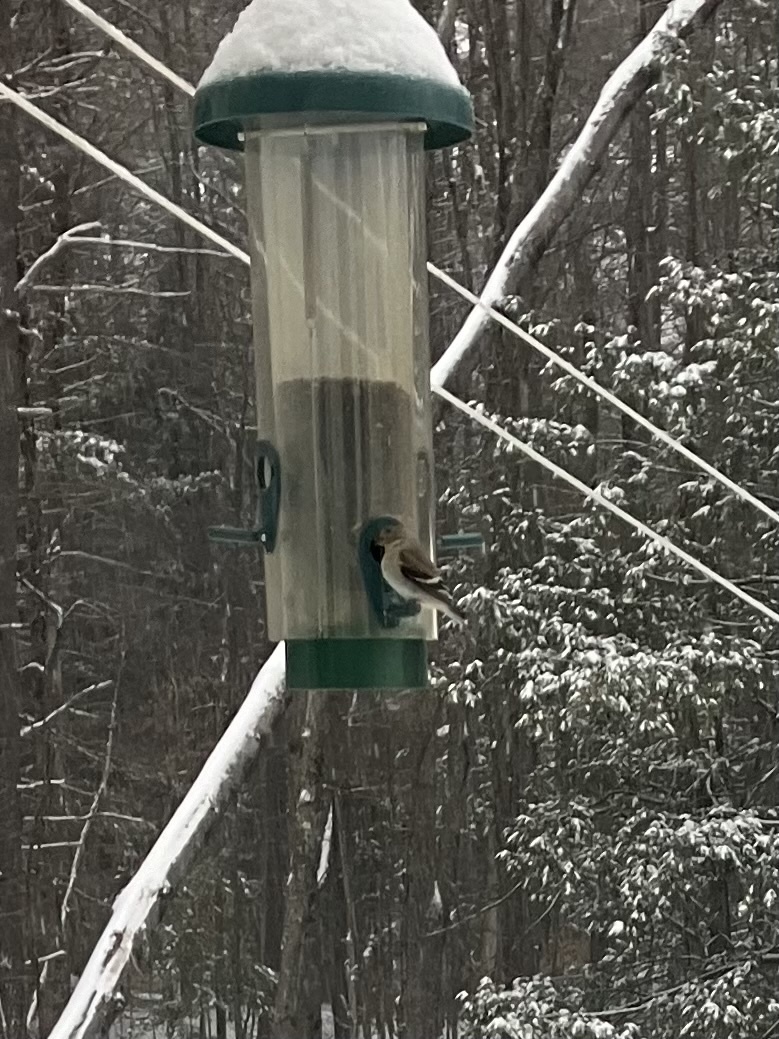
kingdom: Animalia
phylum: Chordata
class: Aves
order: Passeriformes
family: Fringillidae
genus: Spinus
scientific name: Spinus tristis
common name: American goldfinch
